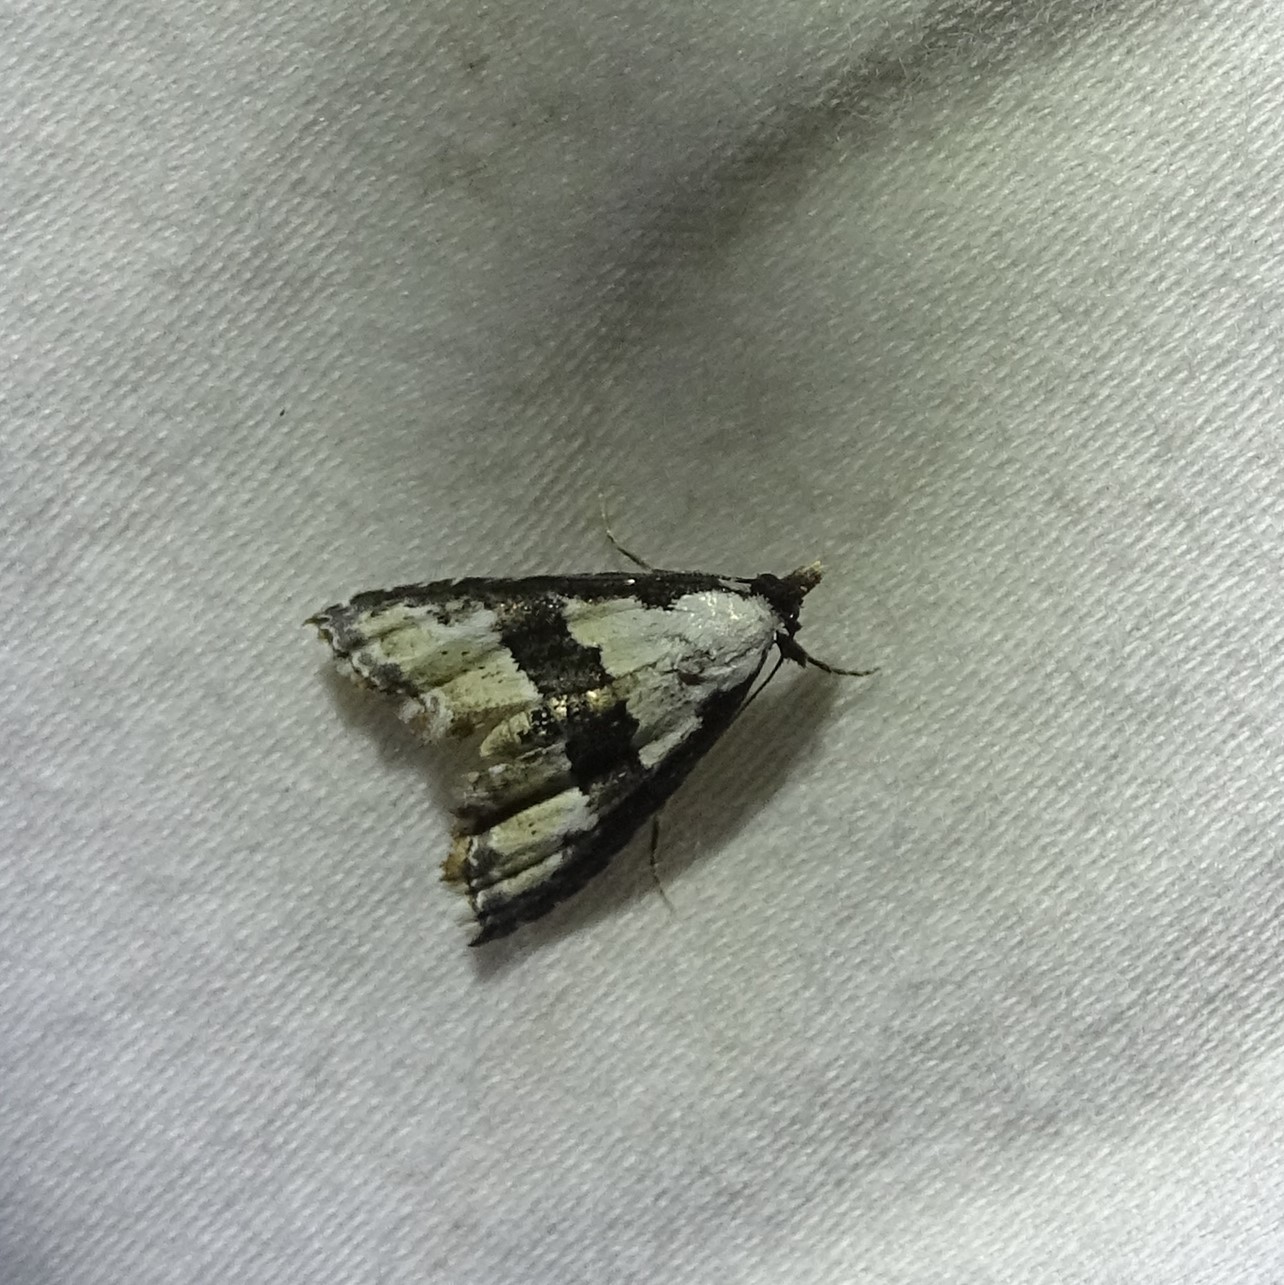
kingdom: Animalia
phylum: Arthropoda
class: Insecta
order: Lepidoptera
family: Noctuidae
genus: Nigetia
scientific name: Nigetia formosalis
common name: Thin-winged owlet
